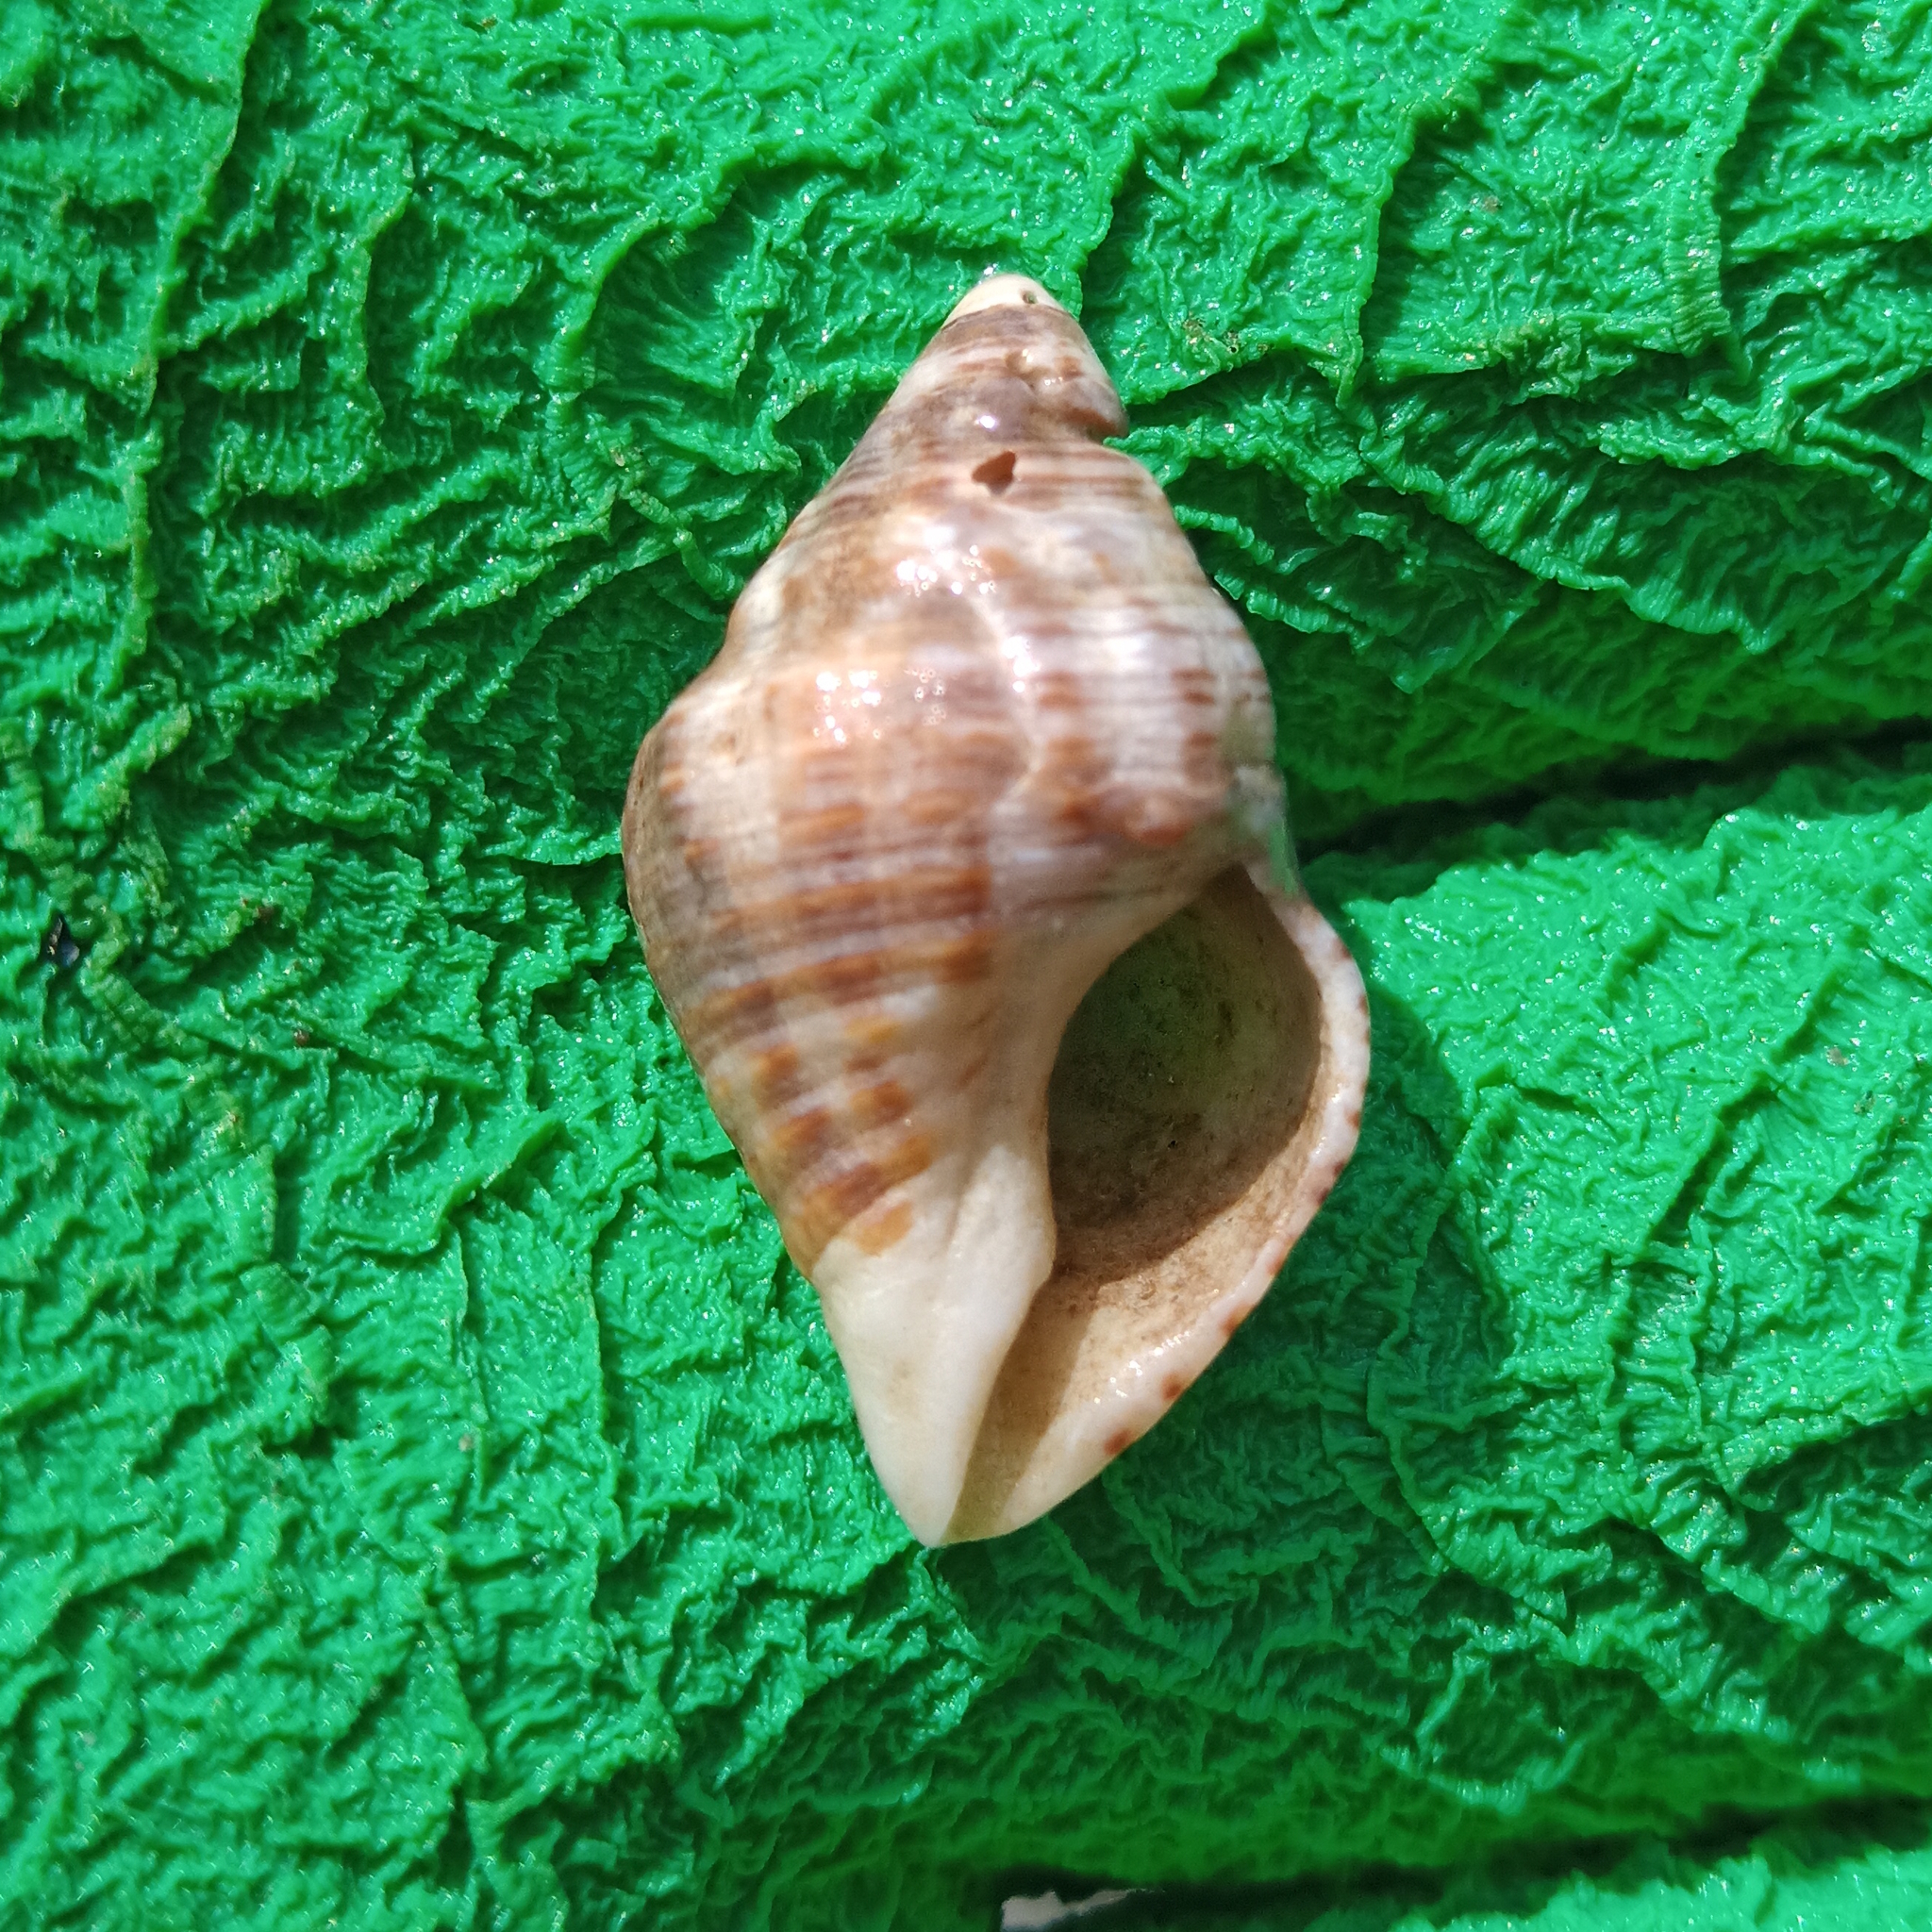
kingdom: Animalia
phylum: Mollusca
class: Gastropoda
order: Neogastropoda
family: Pisaniidae
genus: Gemophos
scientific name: Gemophos auritulus
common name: Gaudy cantharus
